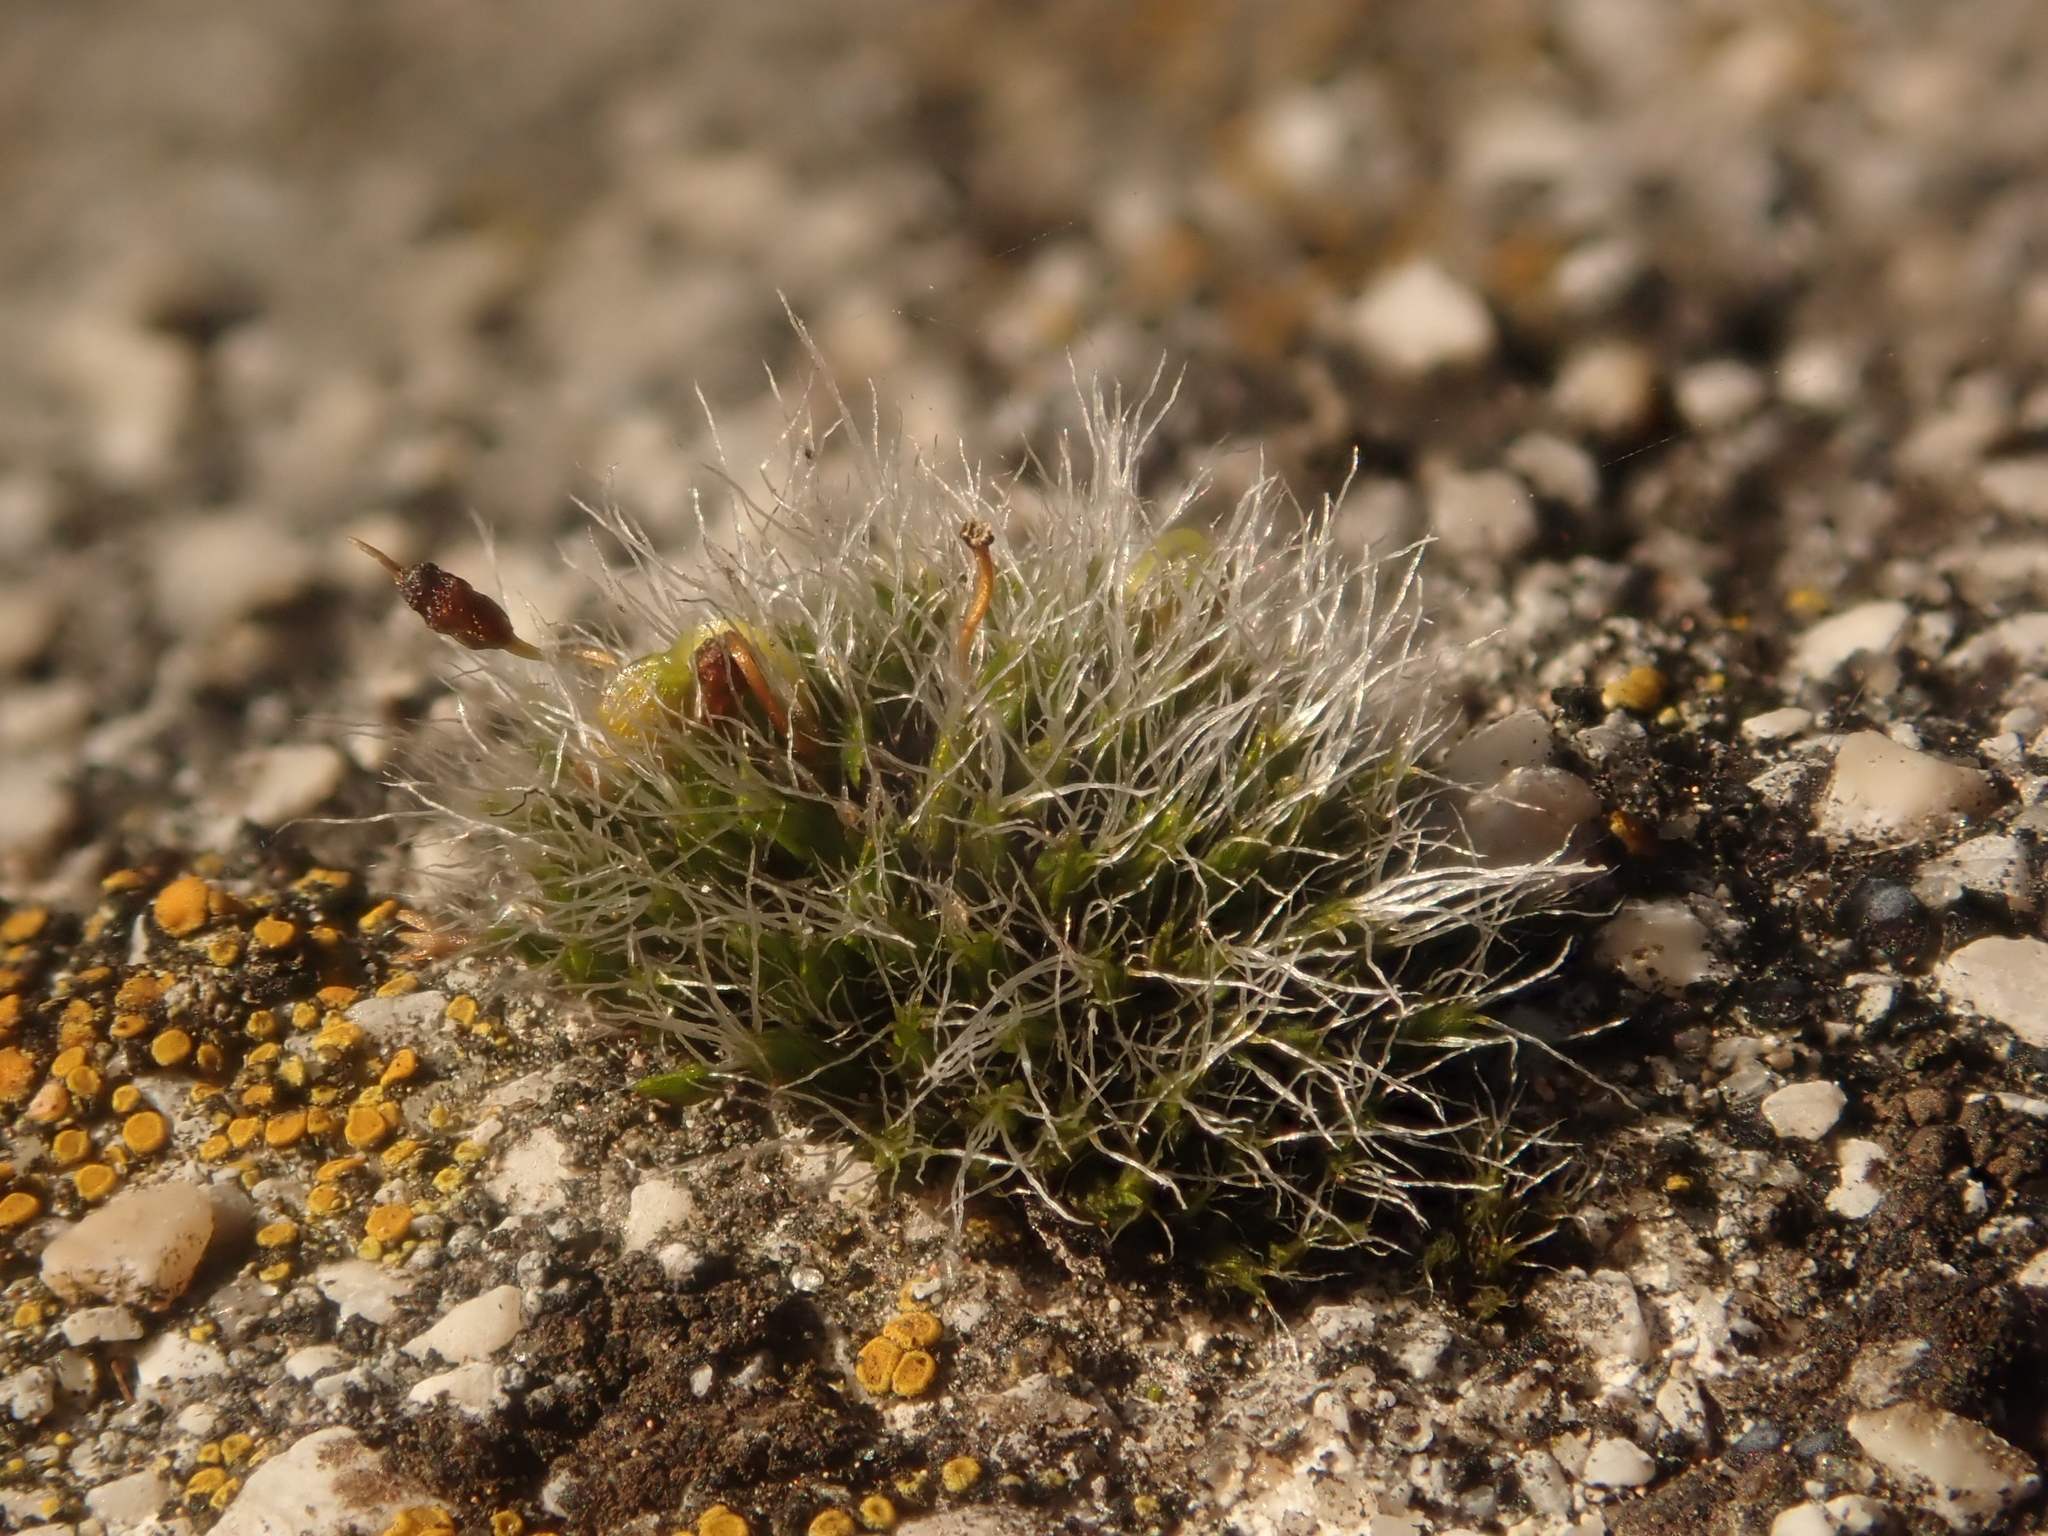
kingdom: Plantae
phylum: Bryophyta
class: Bryopsida
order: Grimmiales
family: Grimmiaceae
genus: Grimmia
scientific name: Grimmia pulvinata
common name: Grey-cushioned grimmia
